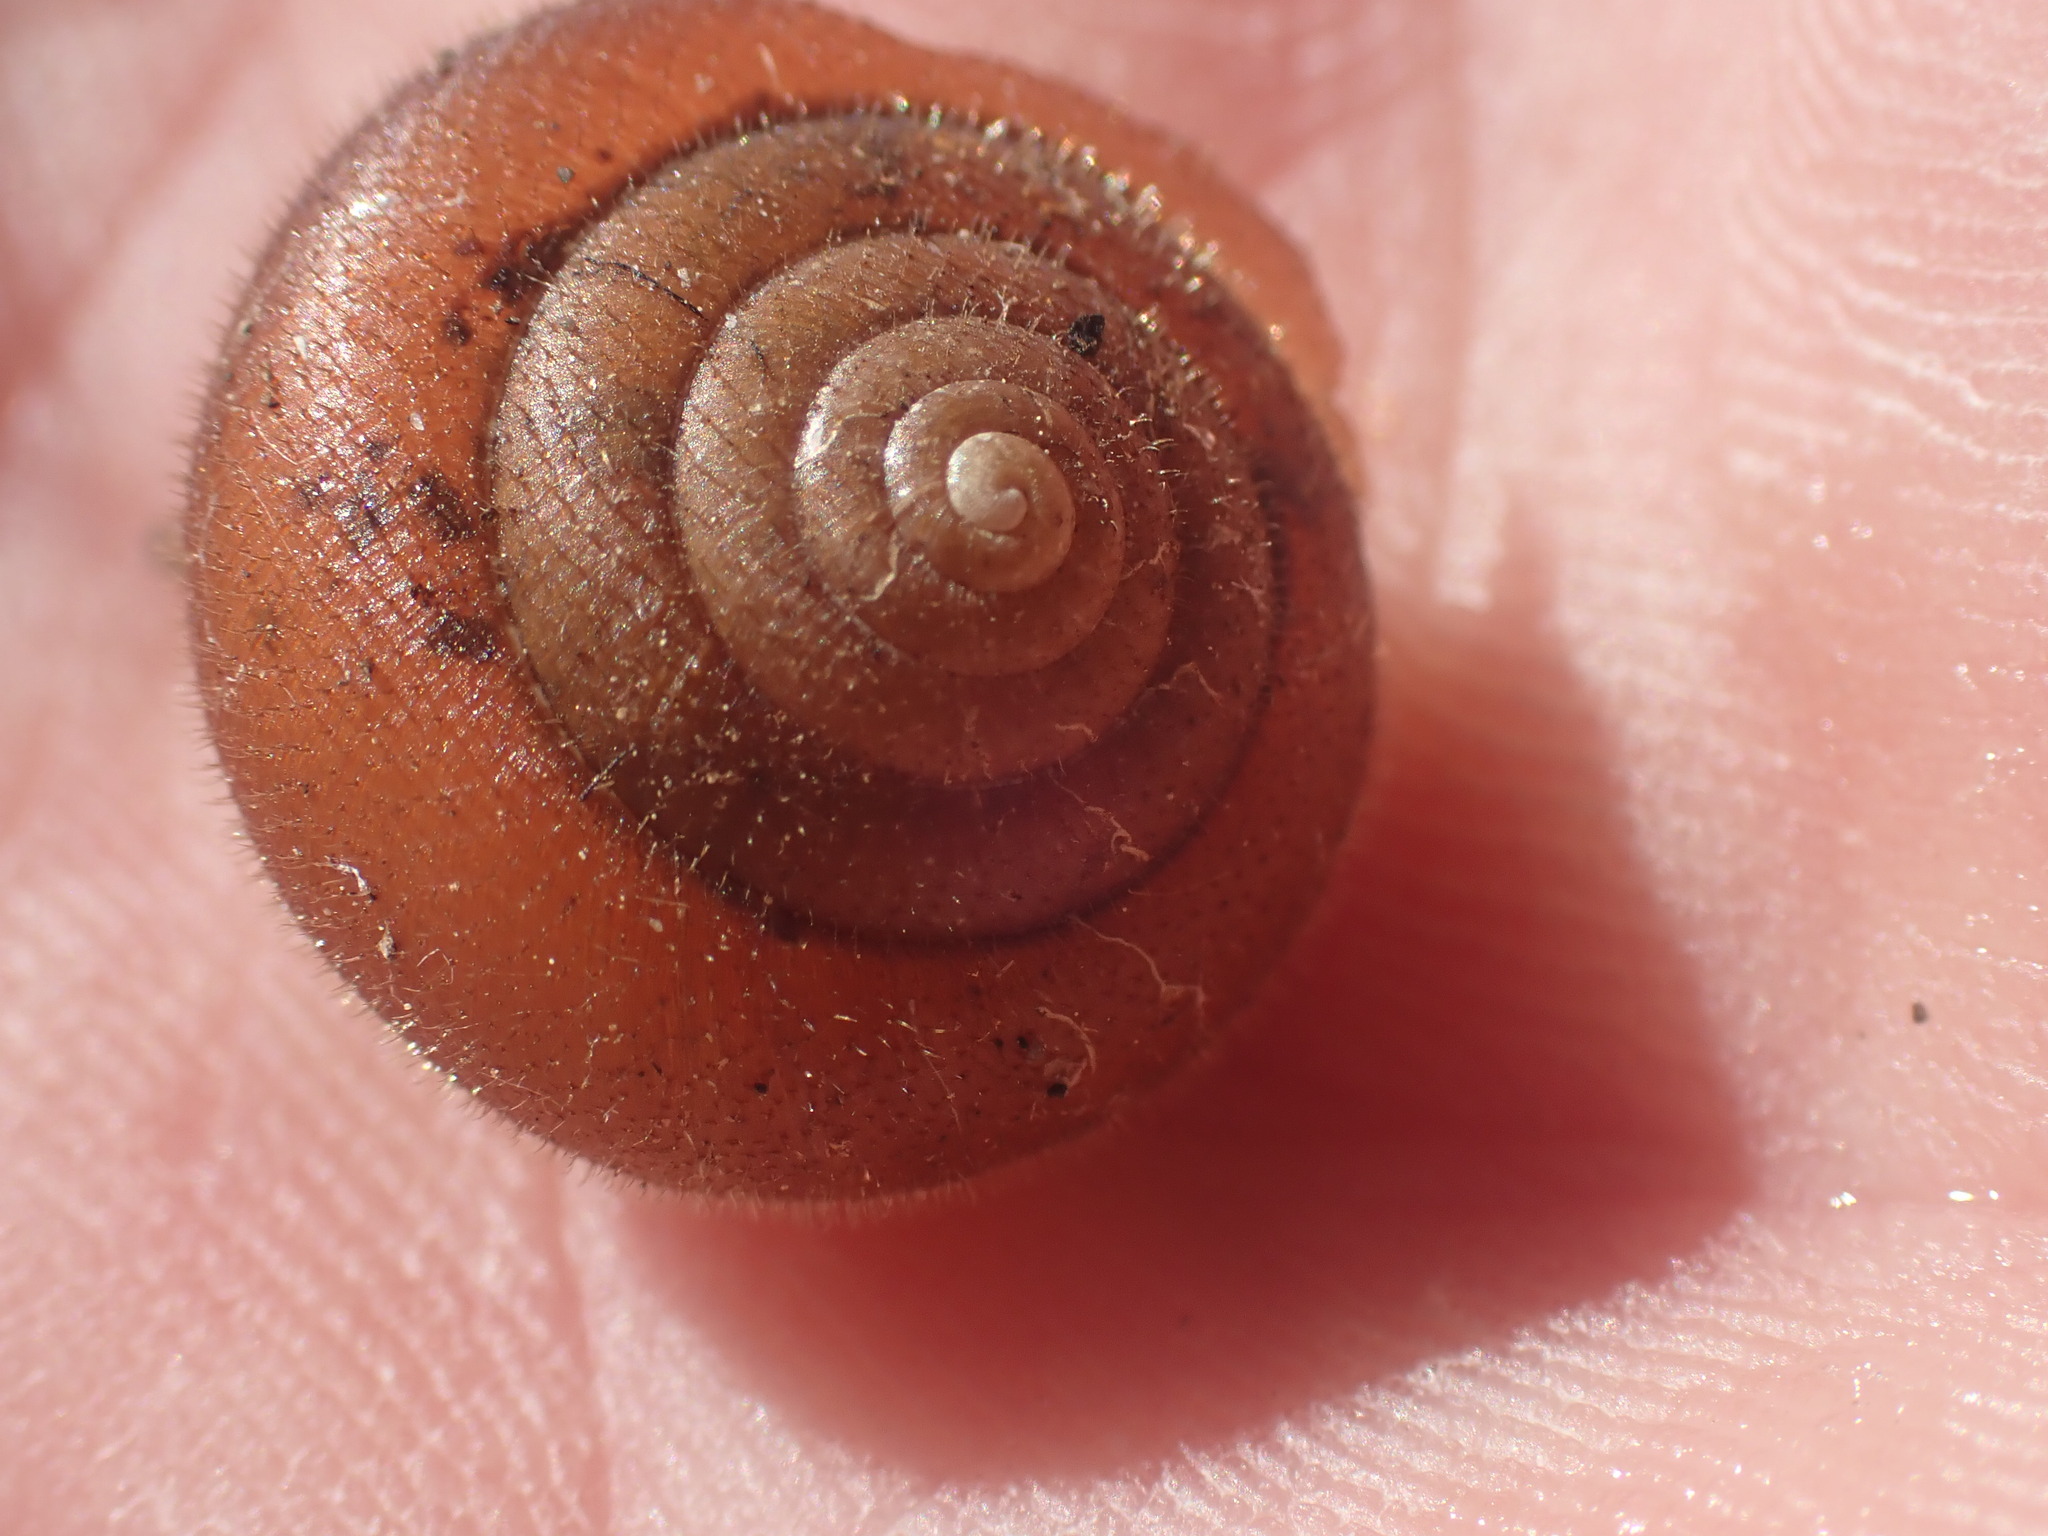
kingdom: Animalia
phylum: Mollusca
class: Gastropoda
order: Stylommatophora
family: Polygyridae
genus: Vespericola
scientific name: Vespericola columbianus
